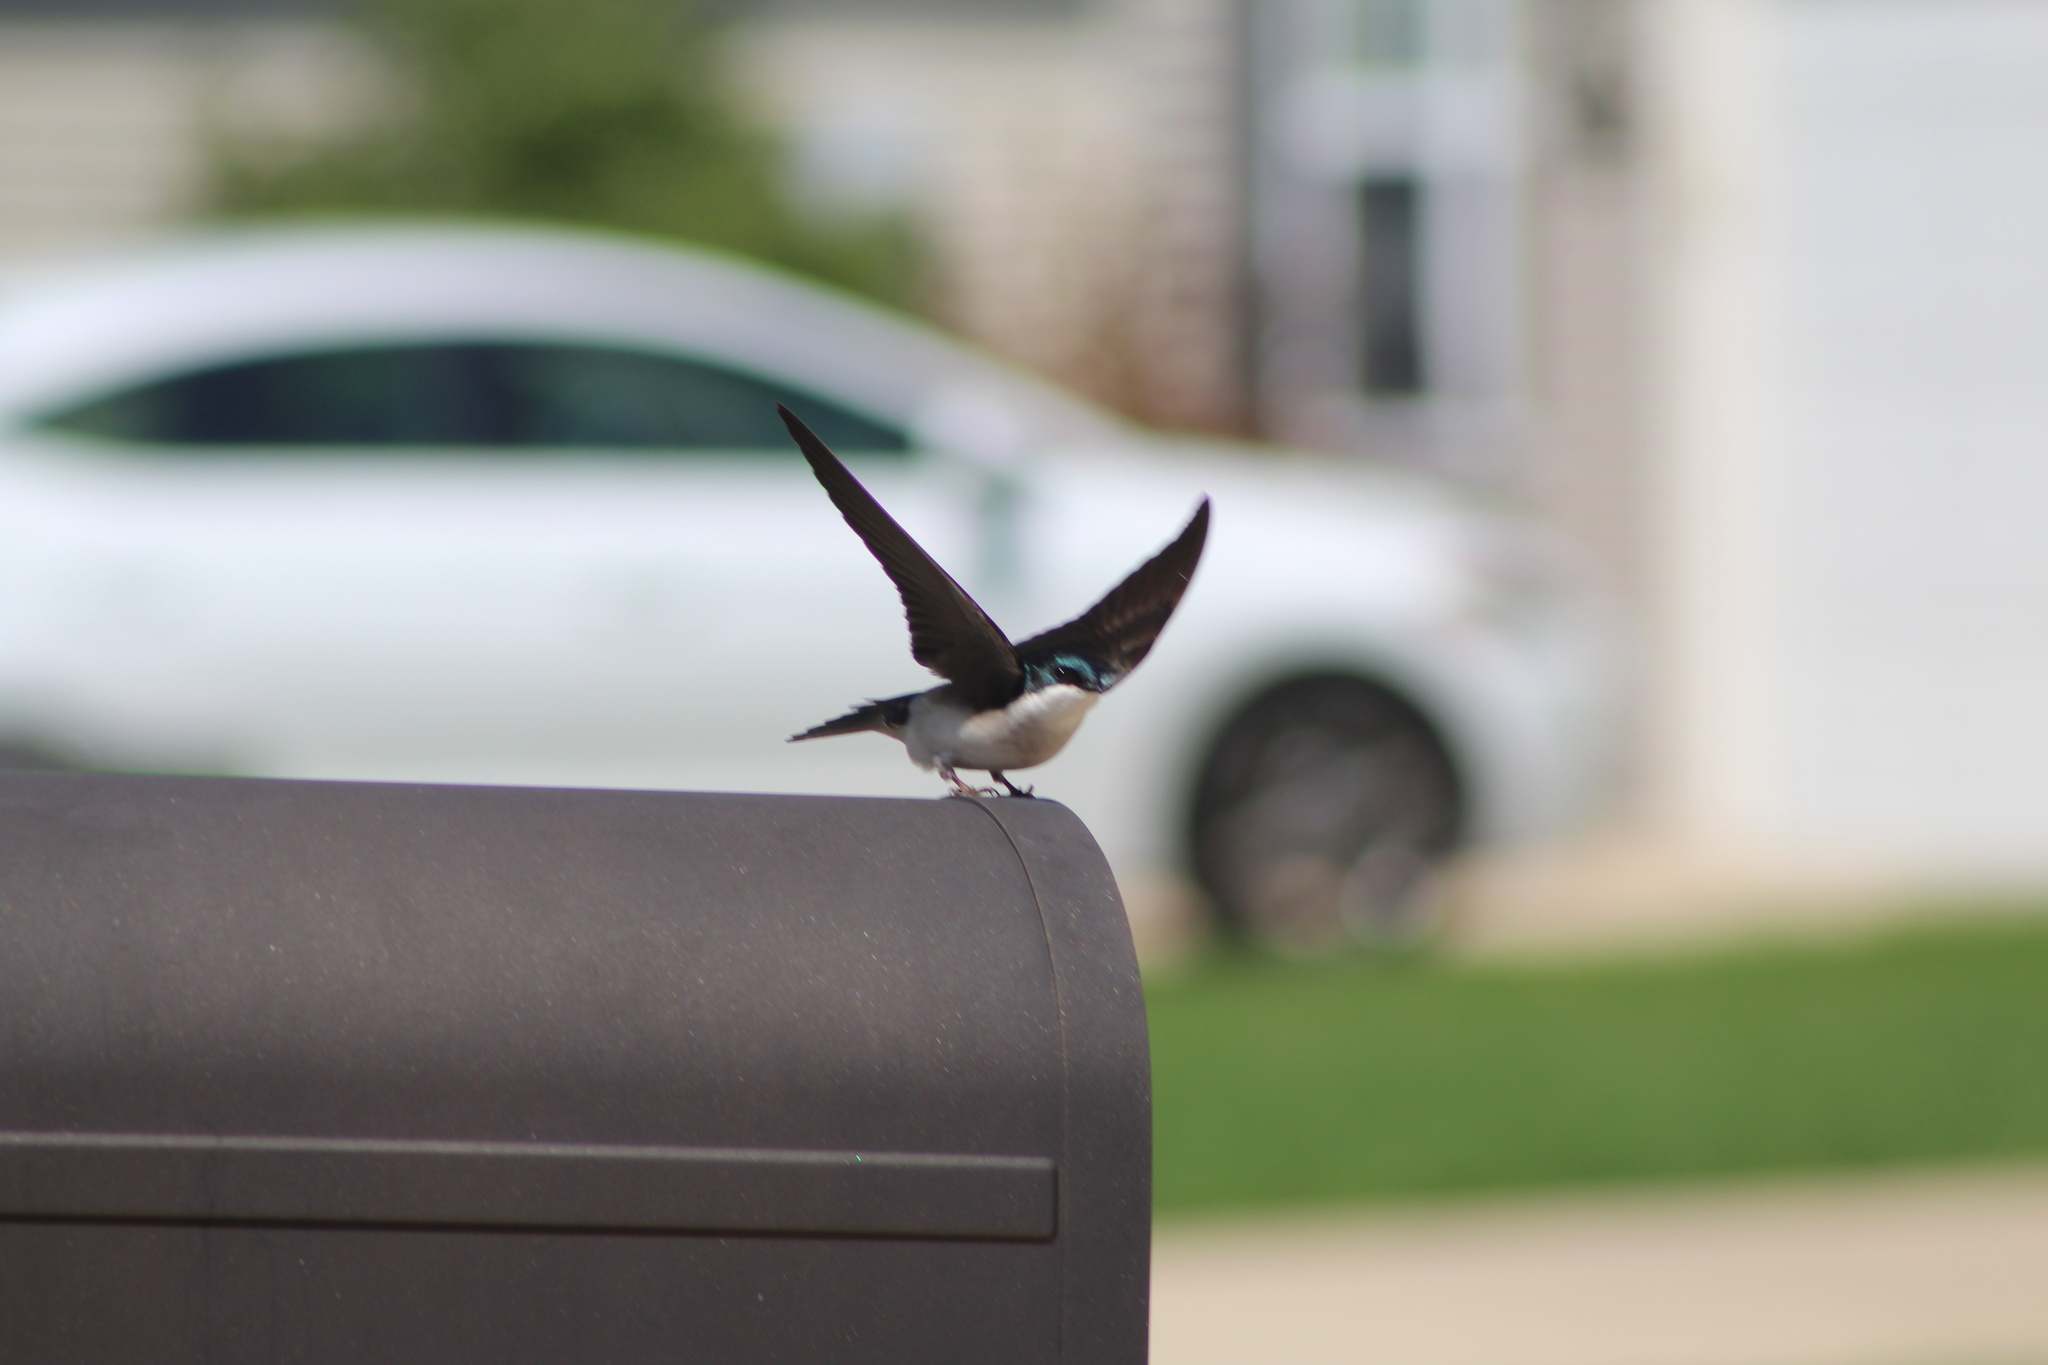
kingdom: Animalia
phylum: Chordata
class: Aves
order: Passeriformes
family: Hirundinidae
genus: Tachycineta
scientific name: Tachycineta bicolor
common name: Tree swallow
